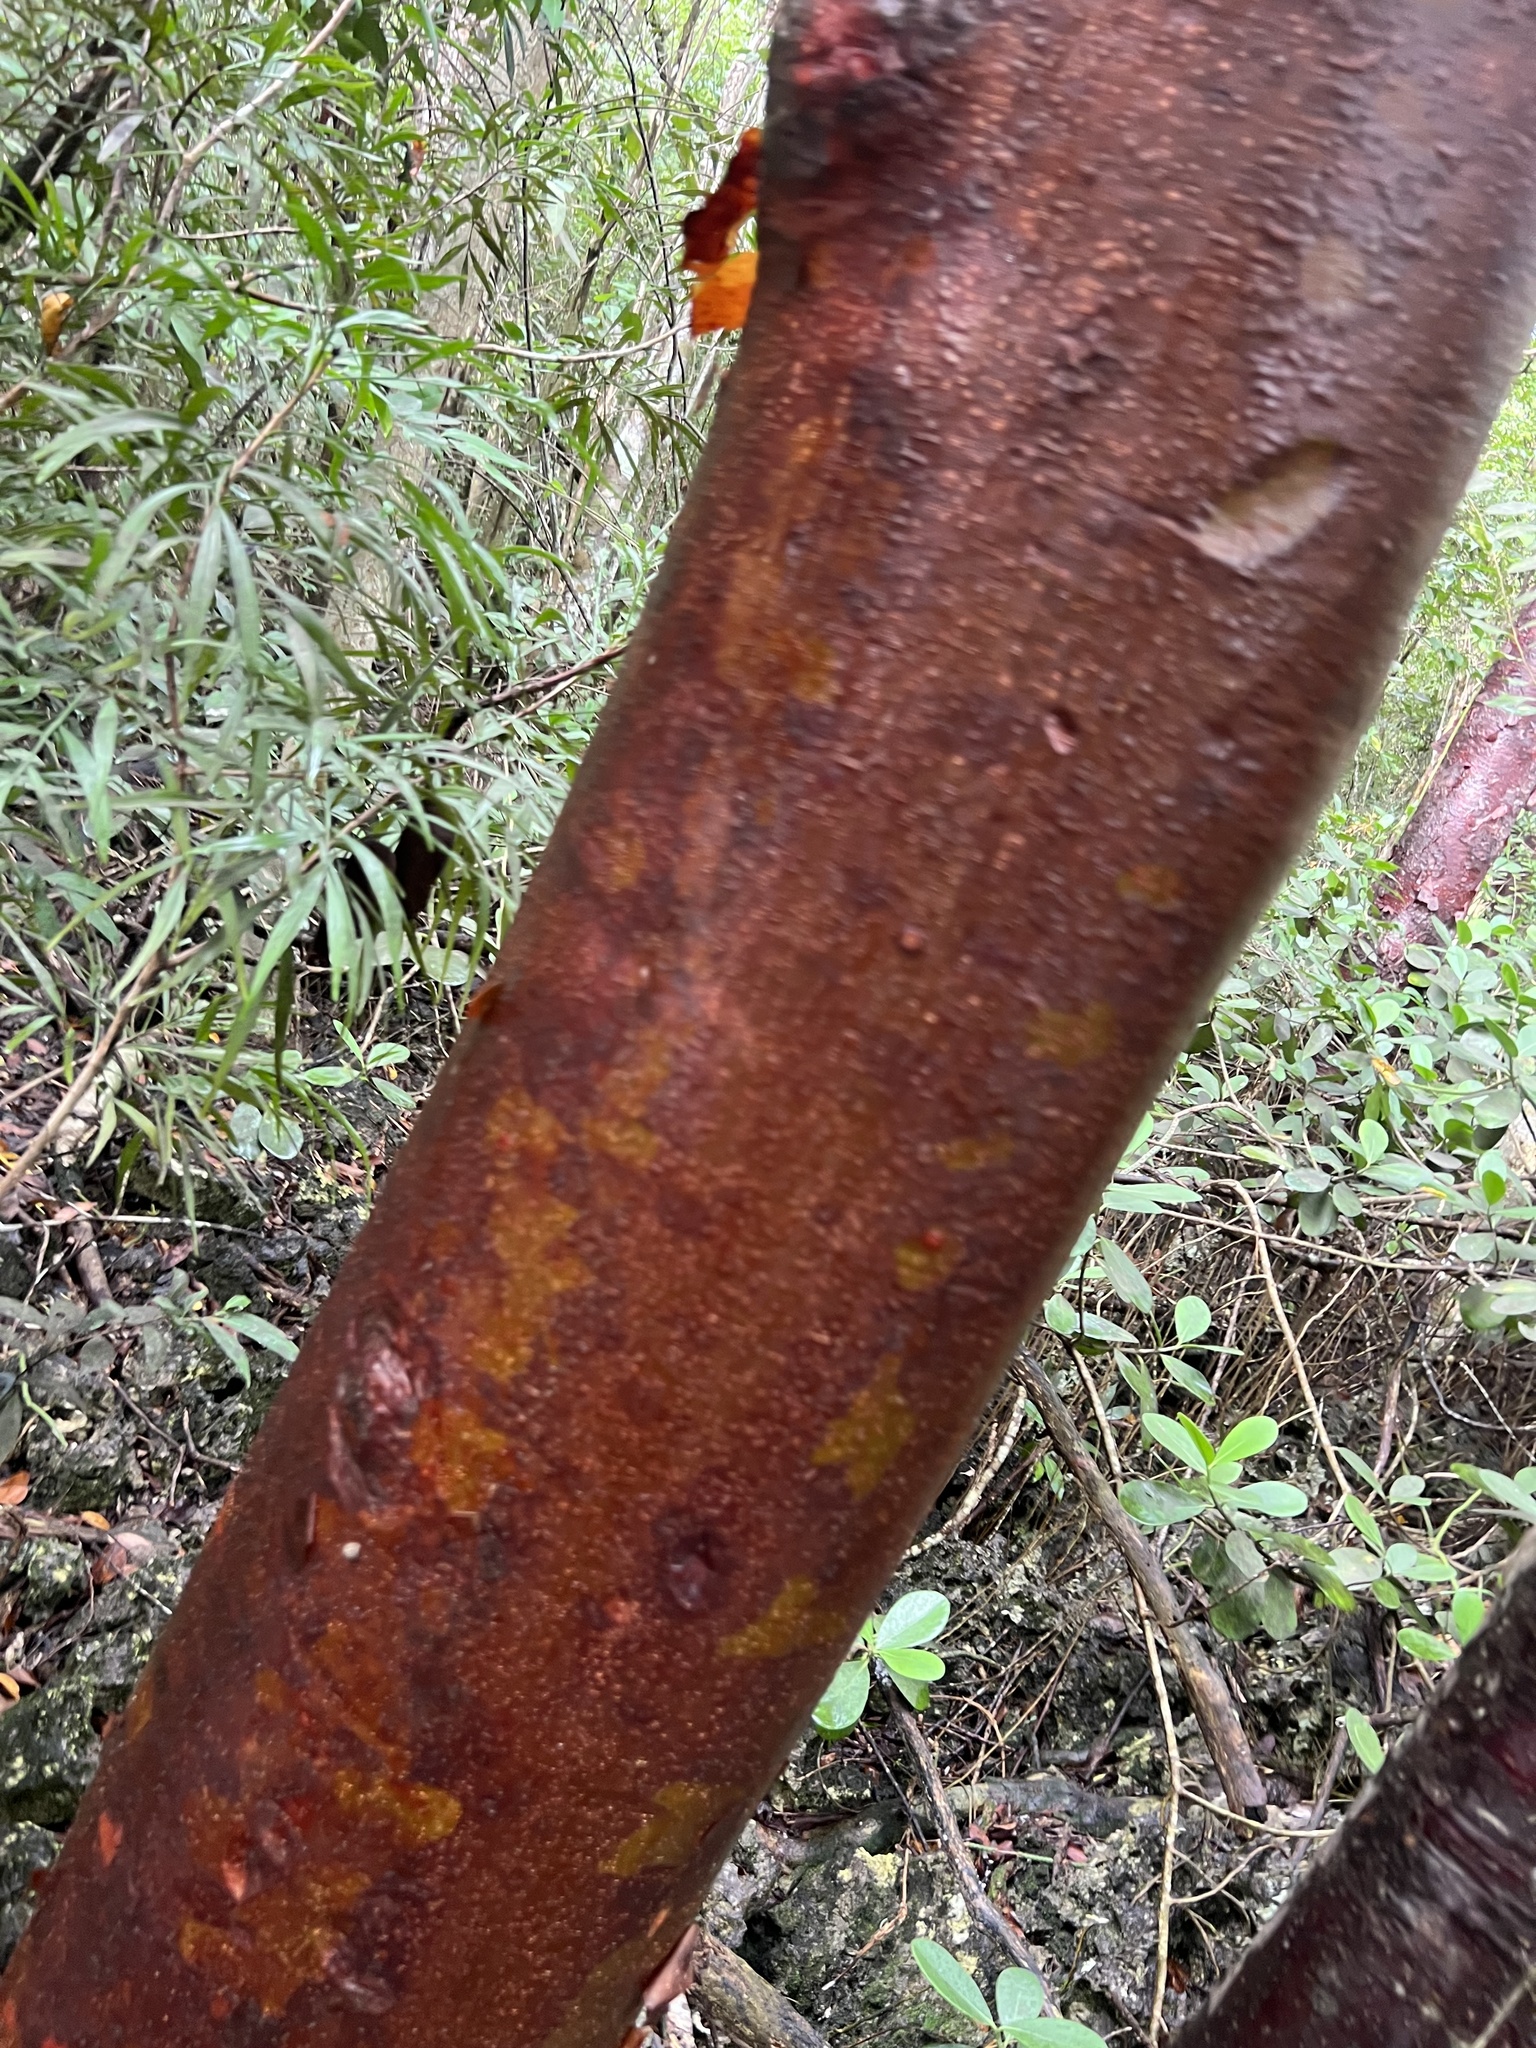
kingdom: Plantae
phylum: Tracheophyta
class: Magnoliopsida
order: Sapindales
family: Burseraceae
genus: Bursera
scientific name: Bursera simaruba
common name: Turpentine tree
